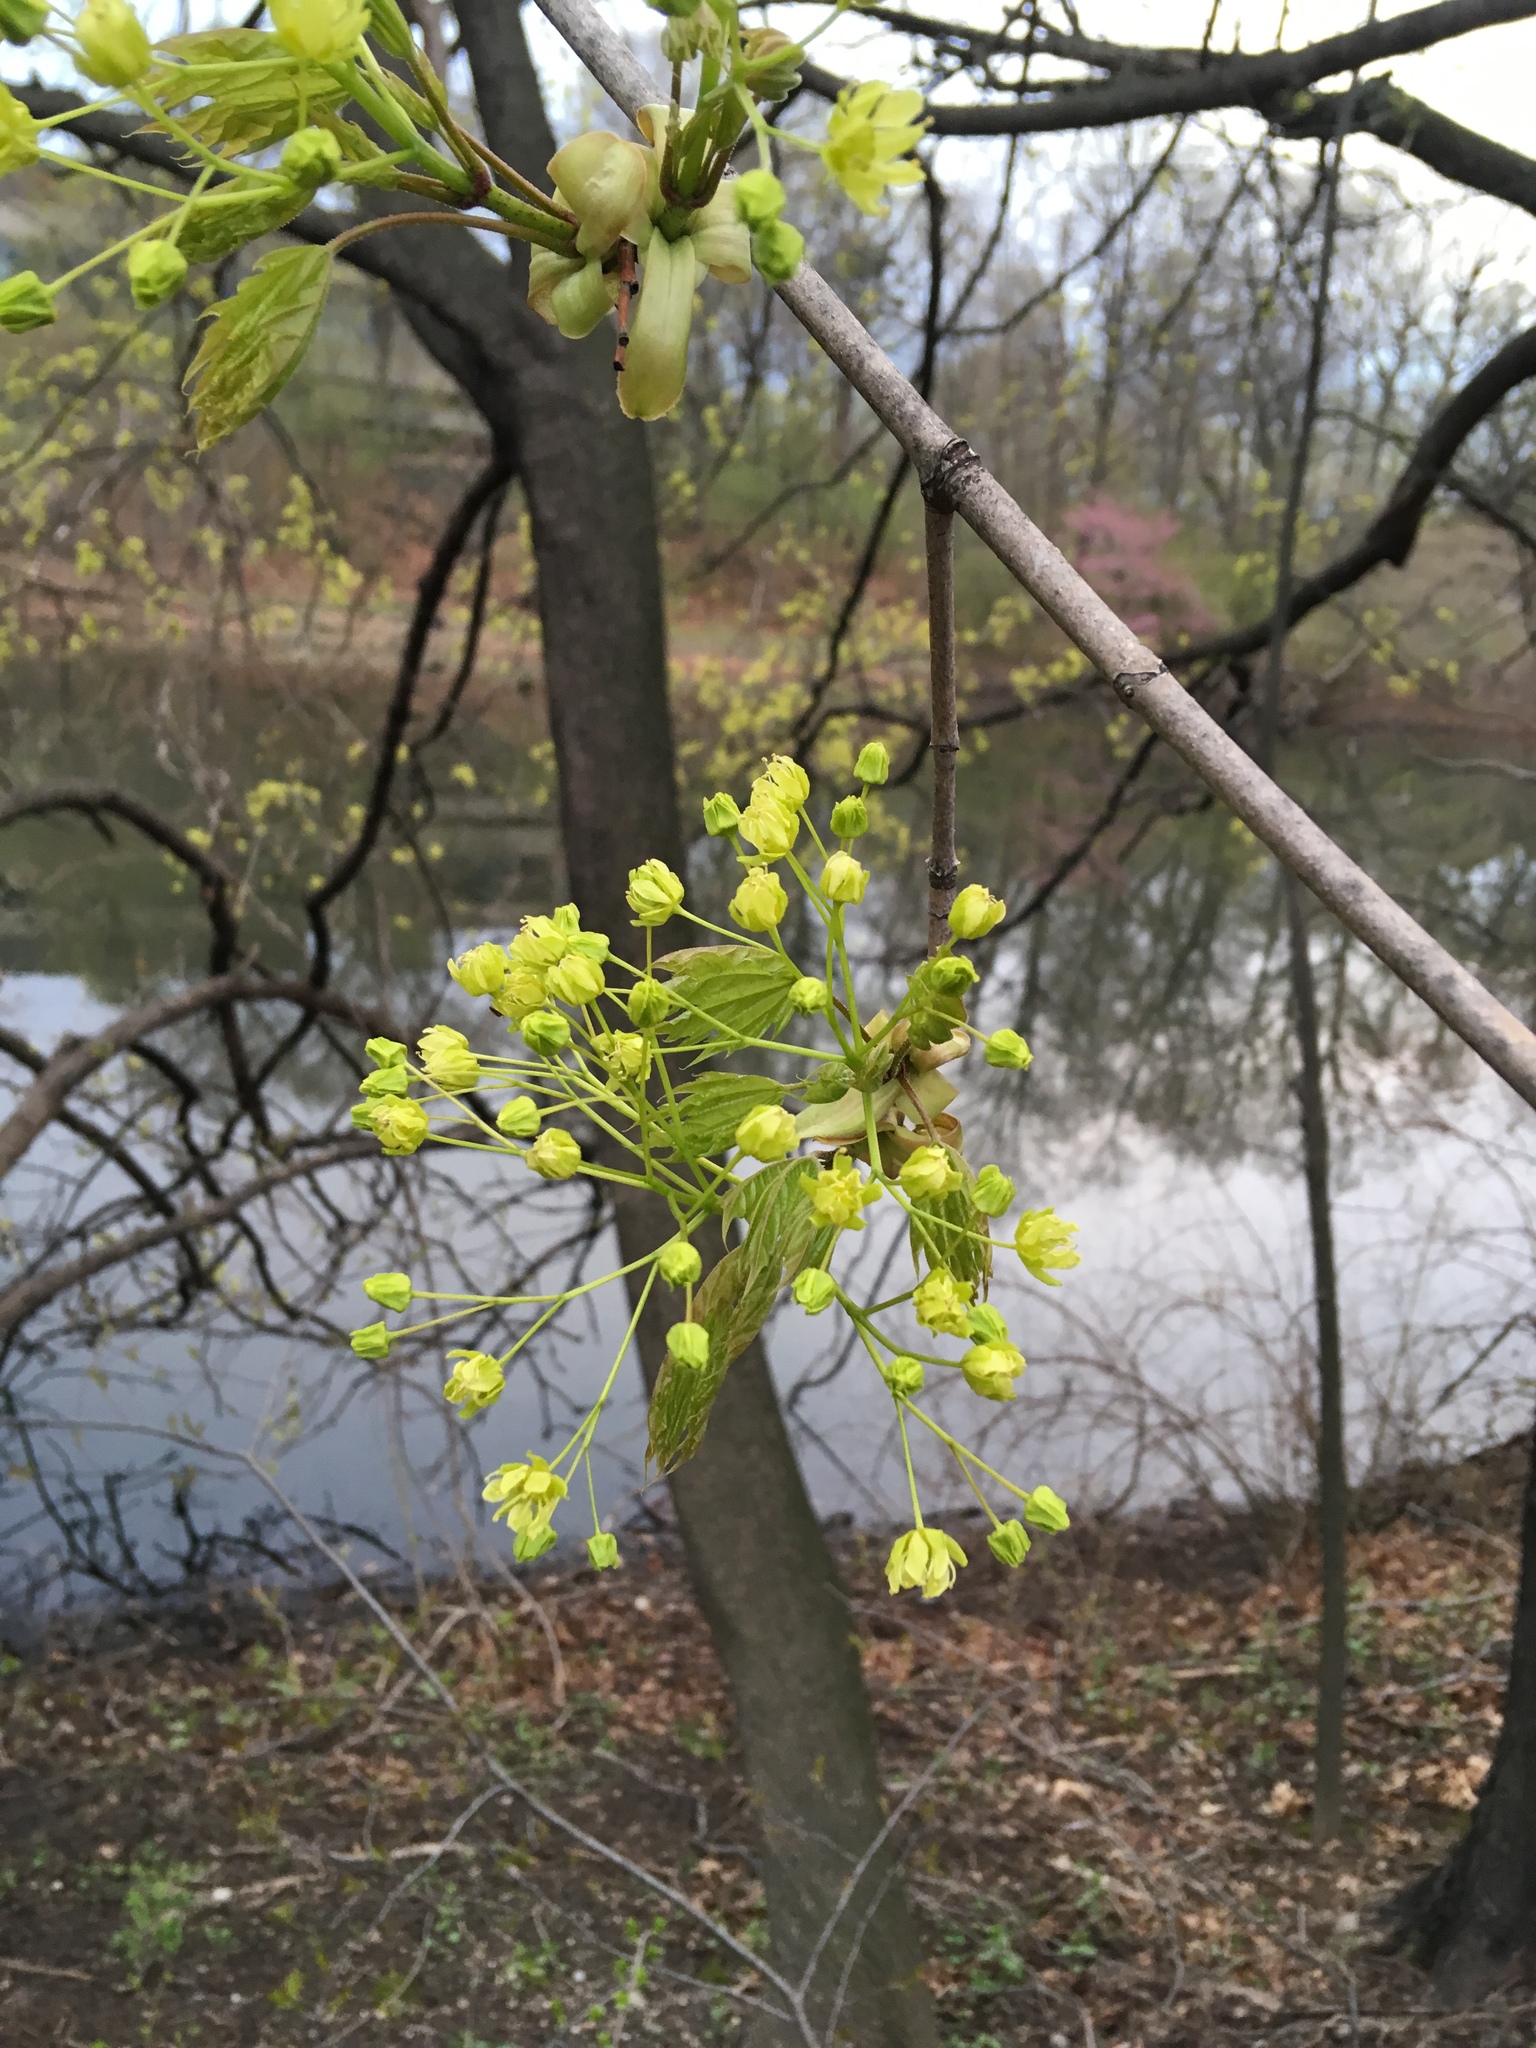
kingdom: Plantae
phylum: Tracheophyta
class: Magnoliopsida
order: Sapindales
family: Sapindaceae
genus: Acer
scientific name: Acer platanoides
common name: Norway maple
